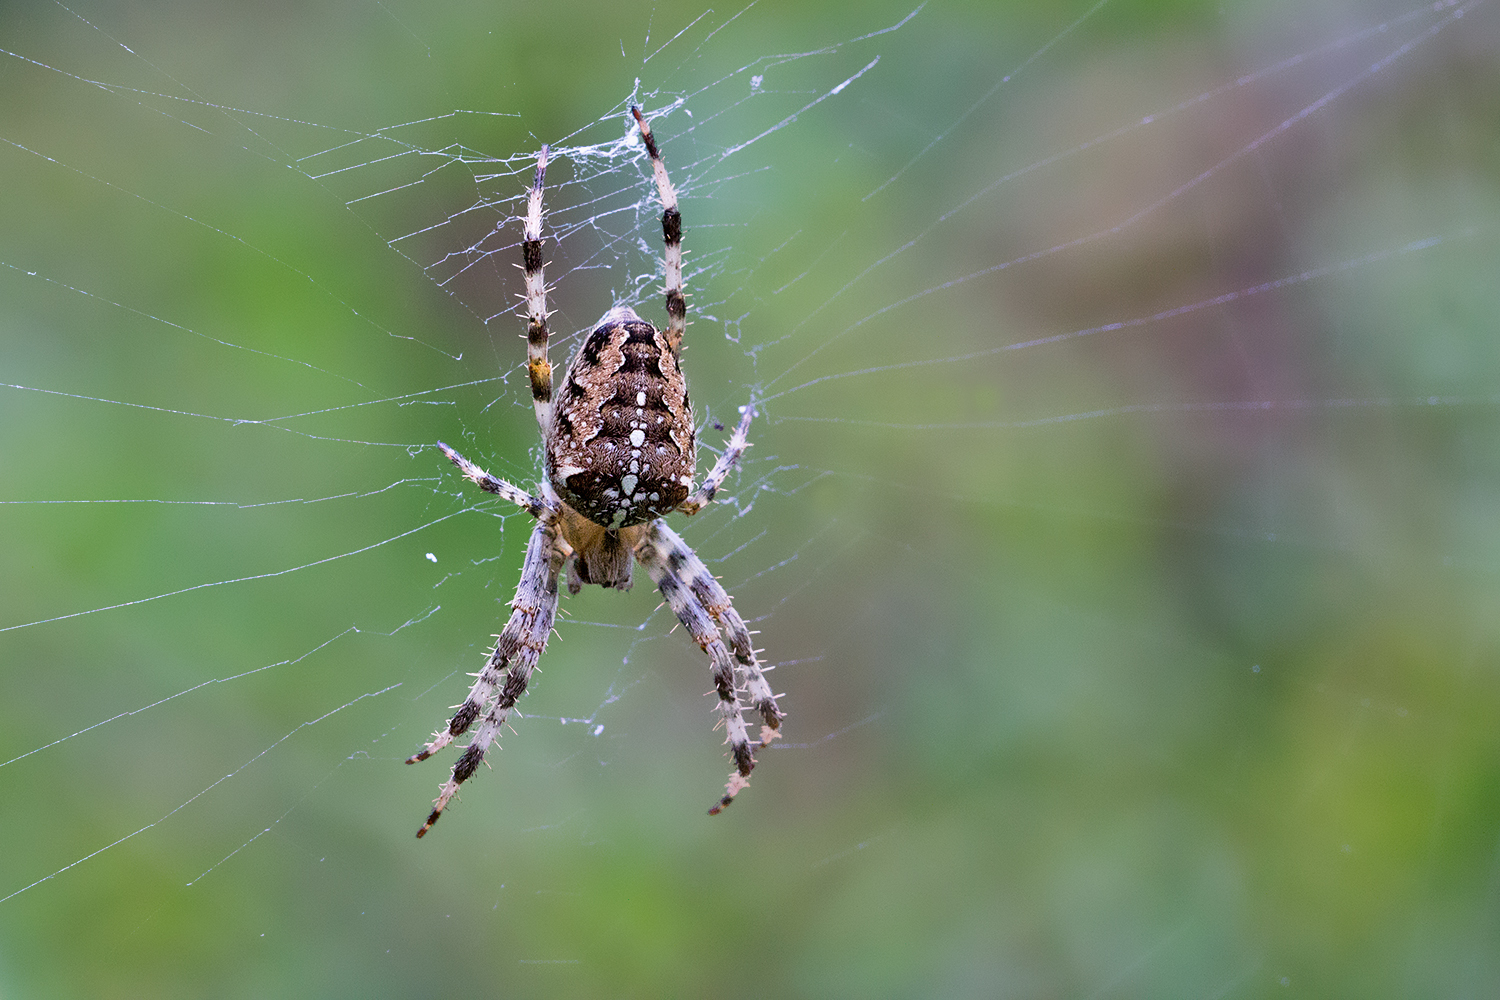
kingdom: Animalia
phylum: Arthropoda
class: Arachnida
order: Araneae
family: Araneidae
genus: Araneus
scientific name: Araneus diadematus
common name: Cross orbweaver
